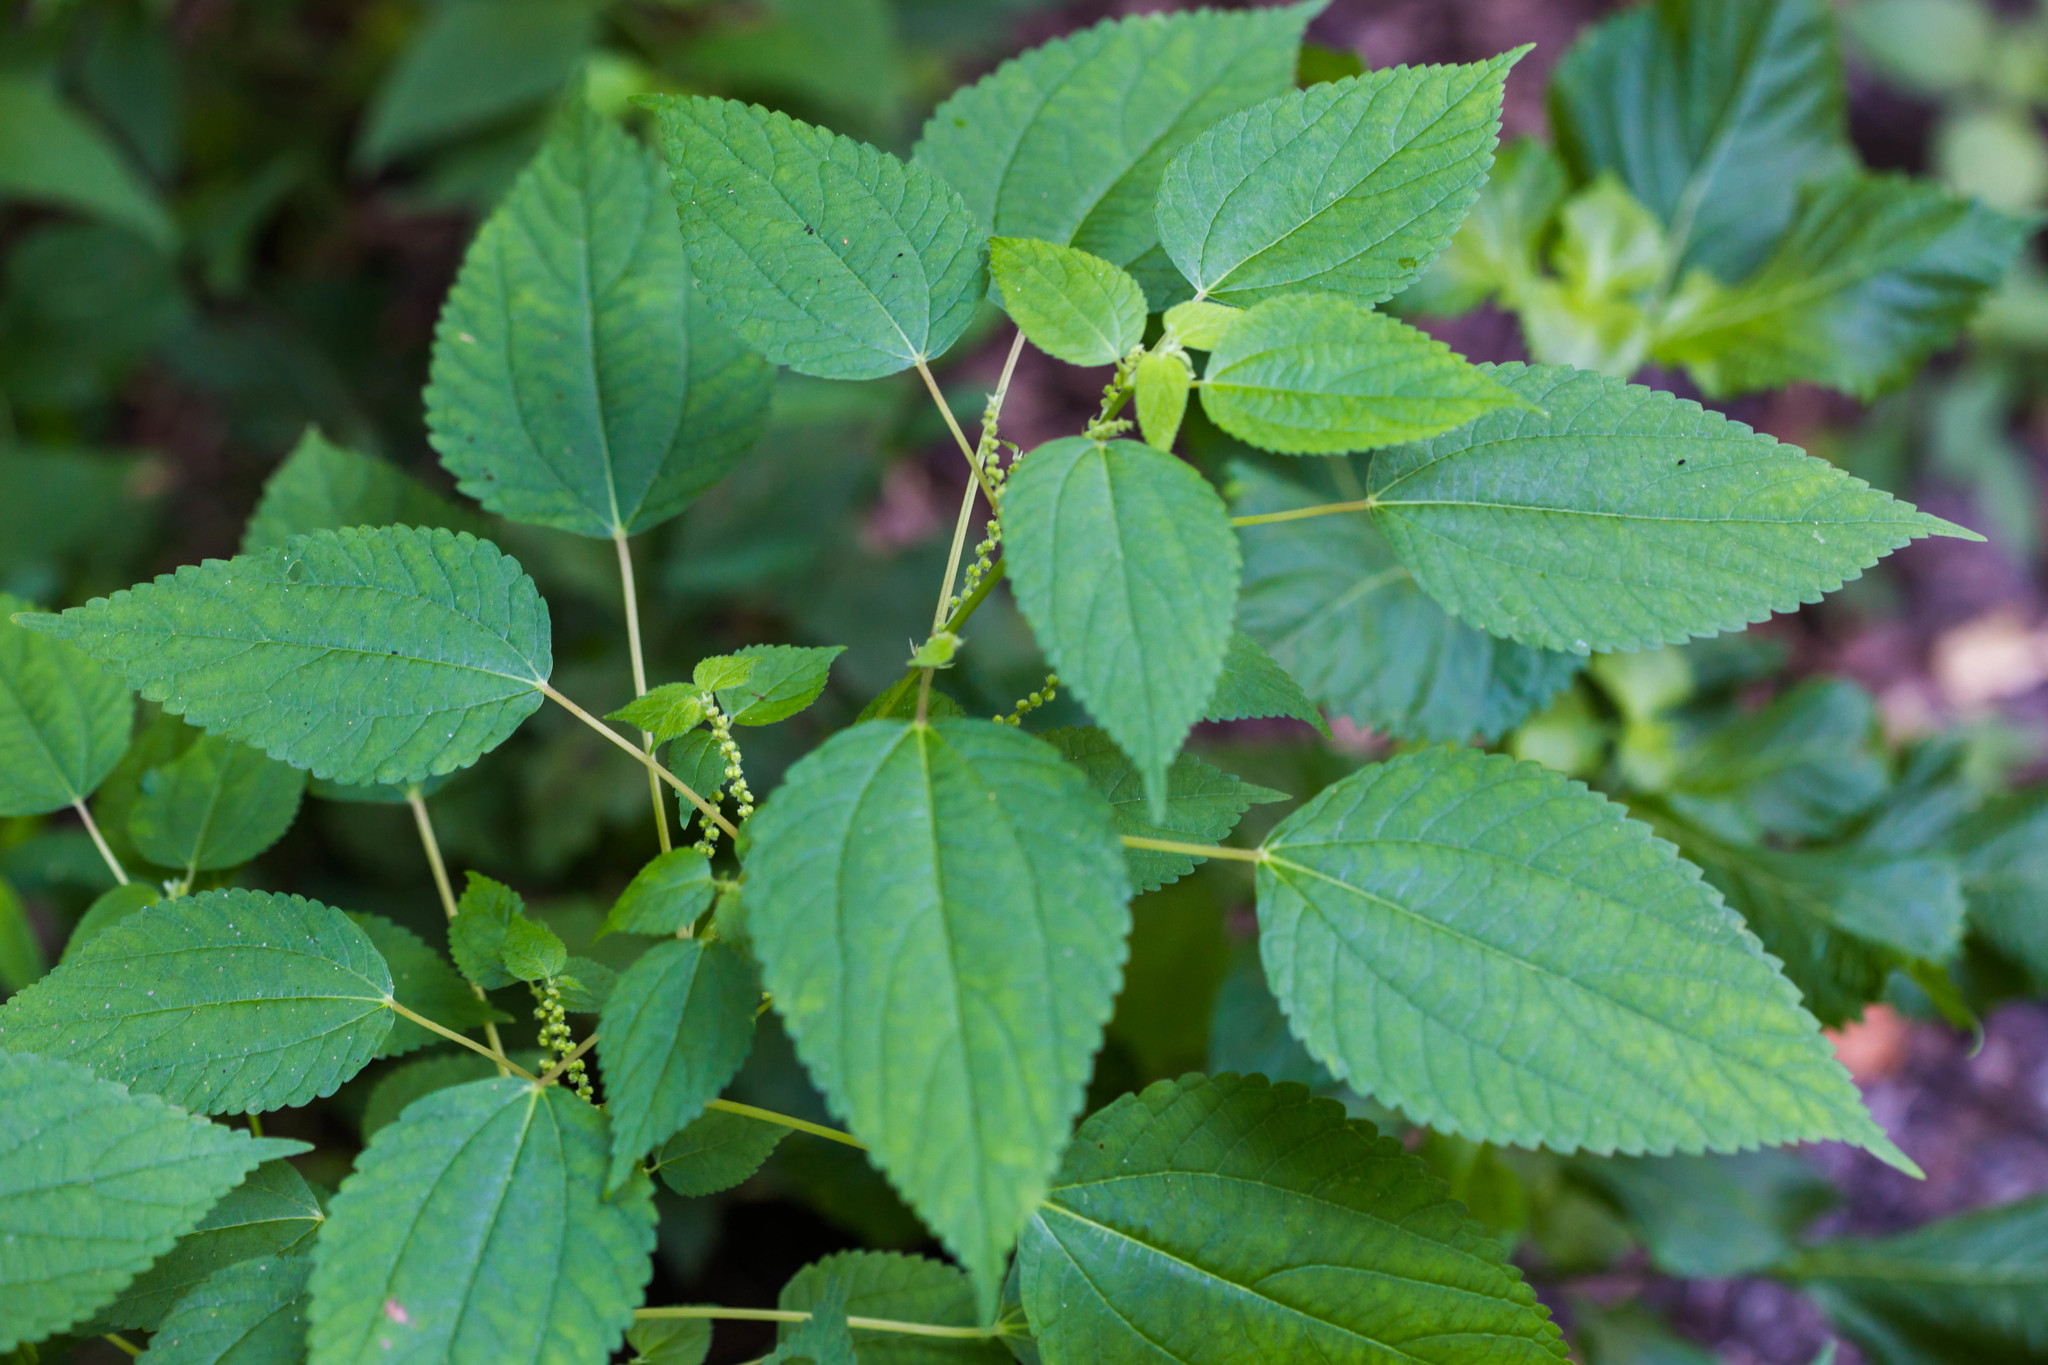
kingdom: Plantae
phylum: Tracheophyta
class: Magnoliopsida
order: Rosales
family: Urticaceae
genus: Boehmeria
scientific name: Boehmeria cylindrica
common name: Bog-hemp
